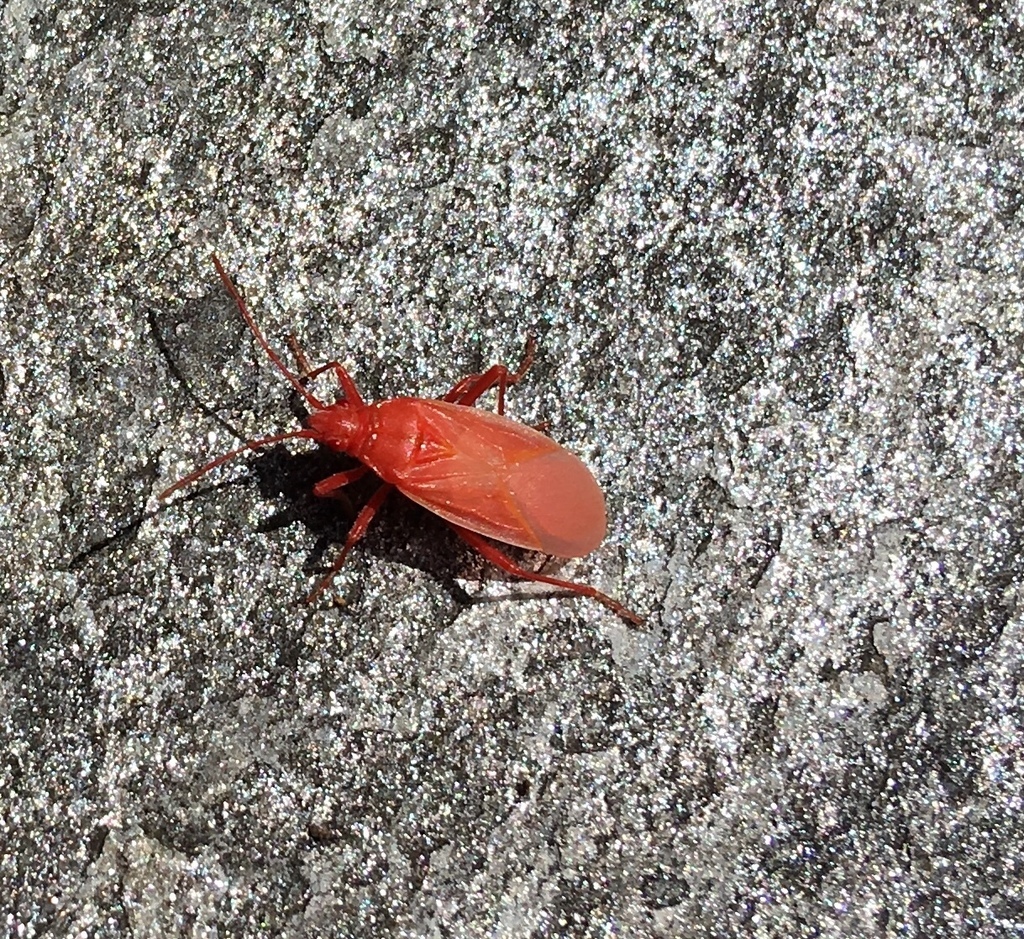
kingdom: Animalia
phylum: Arthropoda
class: Insecta
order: Hemiptera
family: Rhopalidae
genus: Boisea
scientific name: Boisea trivittata
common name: Boxelder bug
